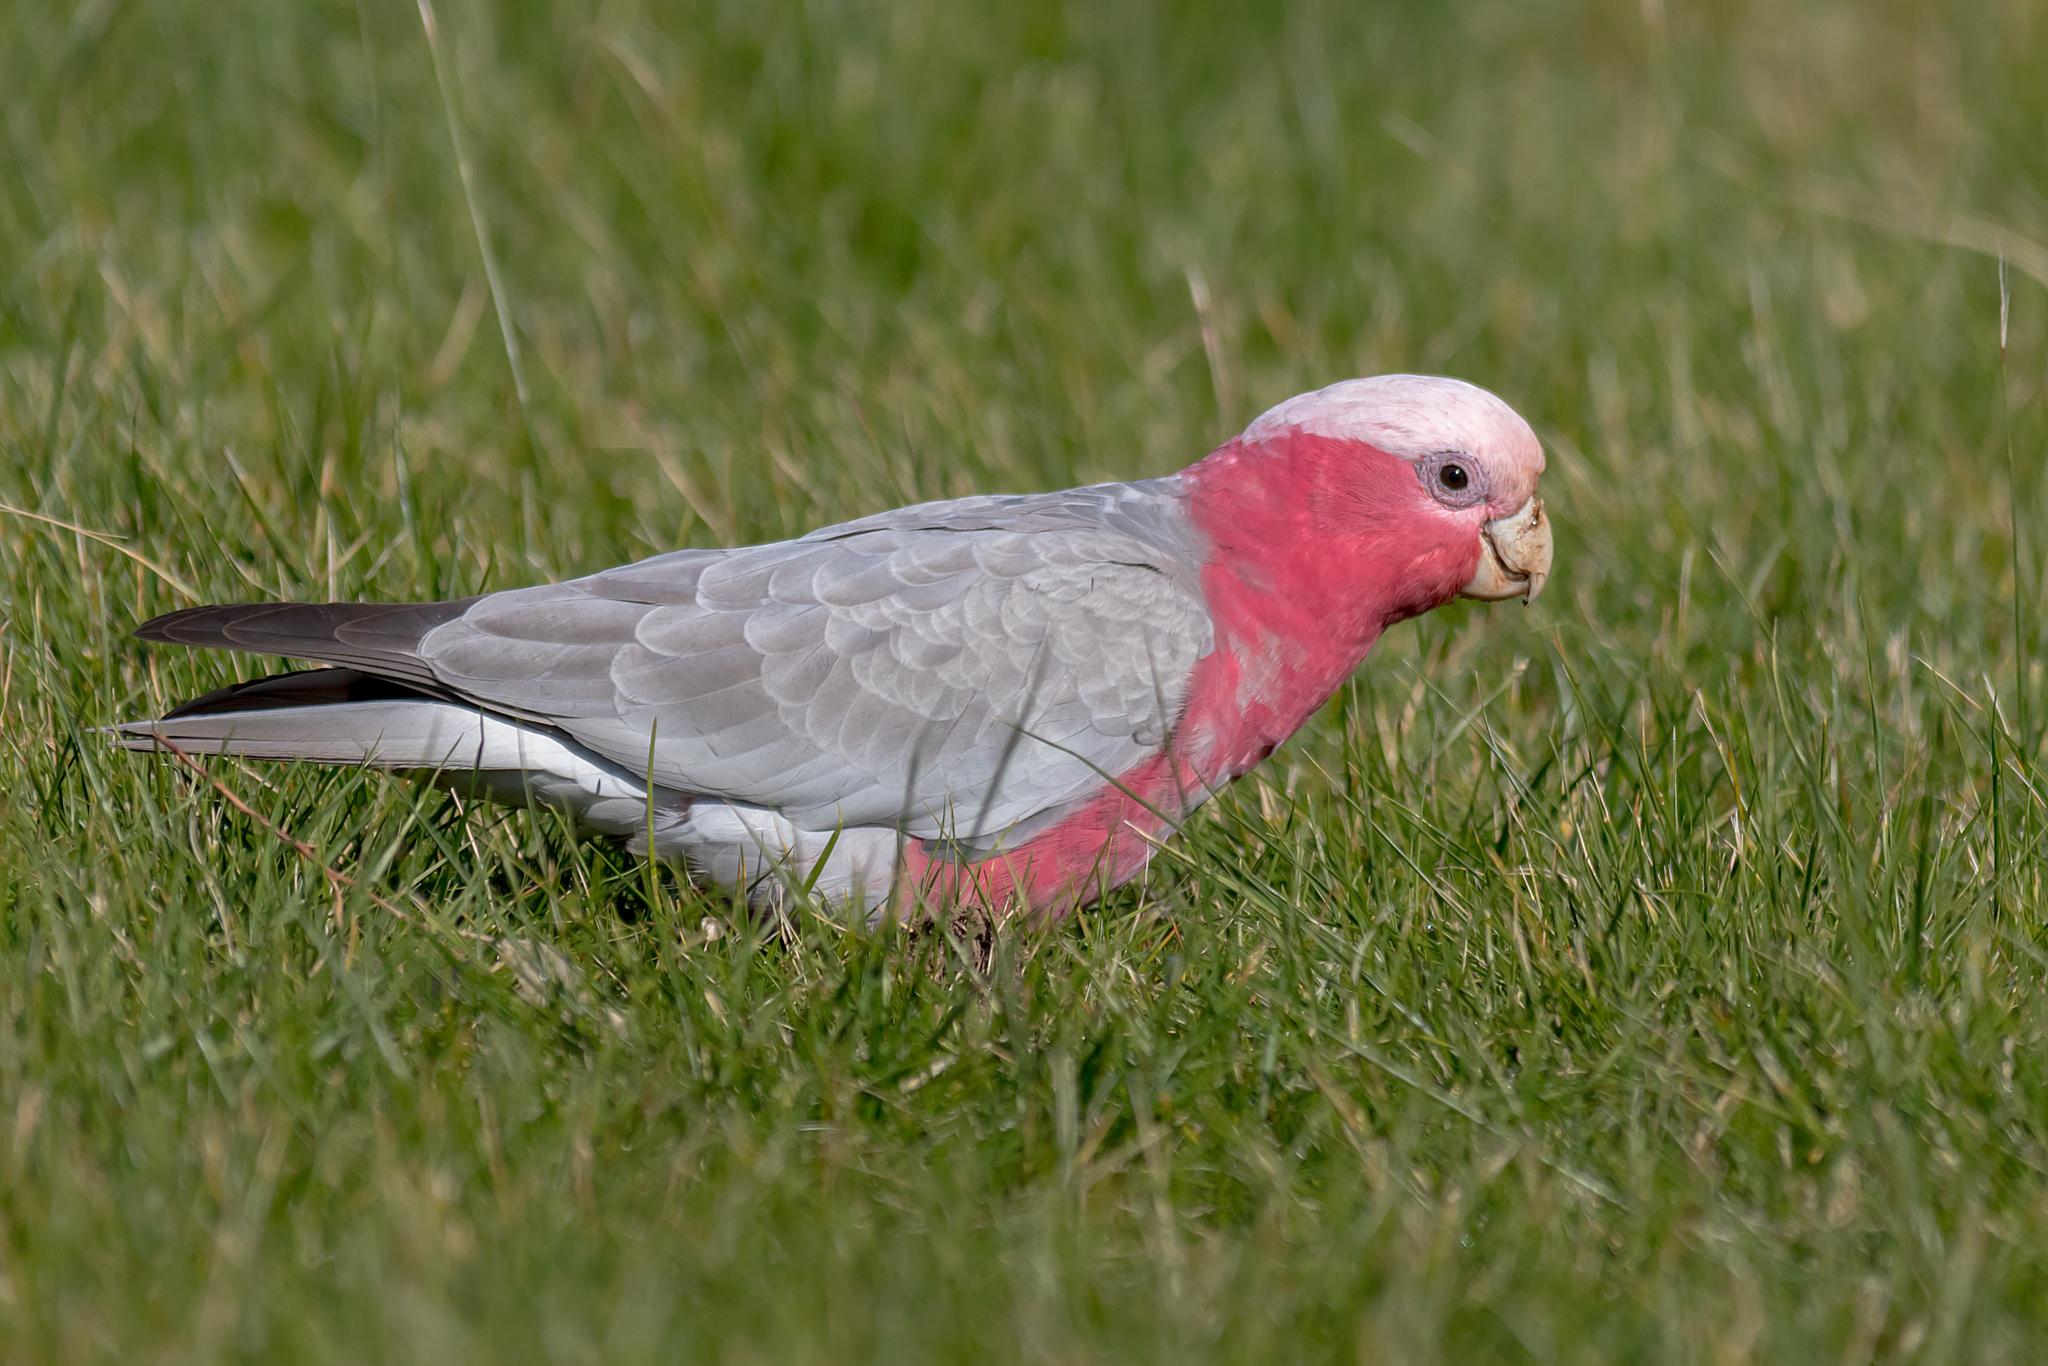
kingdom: Animalia
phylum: Chordata
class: Aves
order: Psittaciformes
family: Psittacidae
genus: Eolophus
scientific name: Eolophus roseicapilla
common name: Galah
